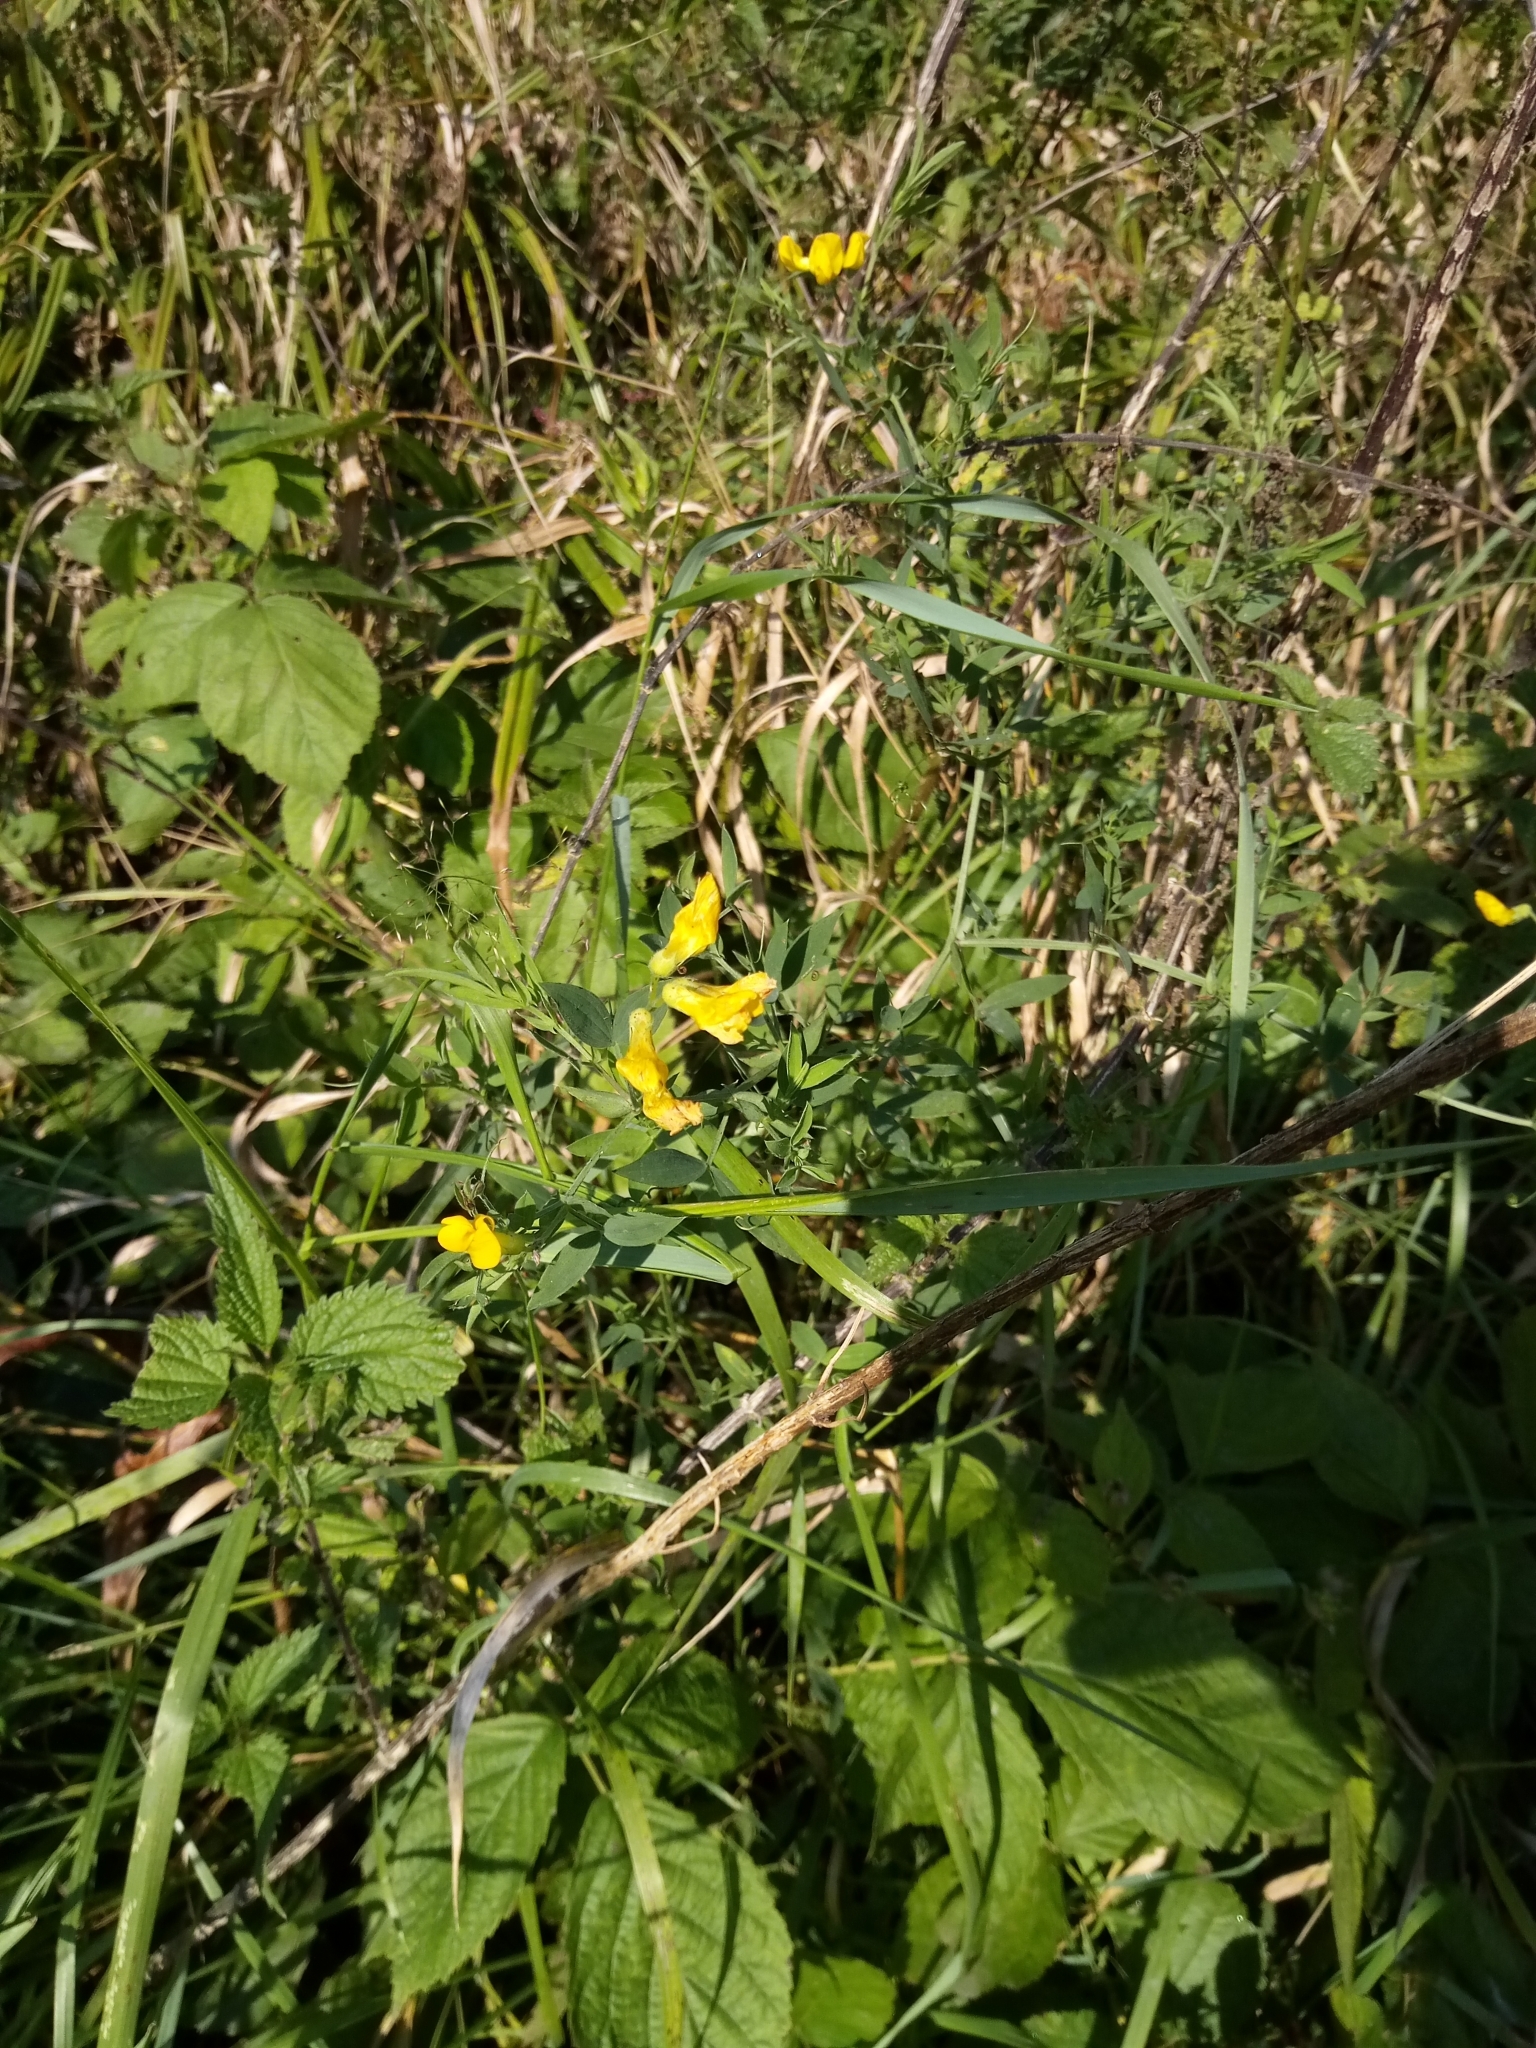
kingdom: Plantae
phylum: Tracheophyta
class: Magnoliopsida
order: Fabales
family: Fabaceae
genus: Lathyrus
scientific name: Lathyrus pratensis
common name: Meadow vetchling
